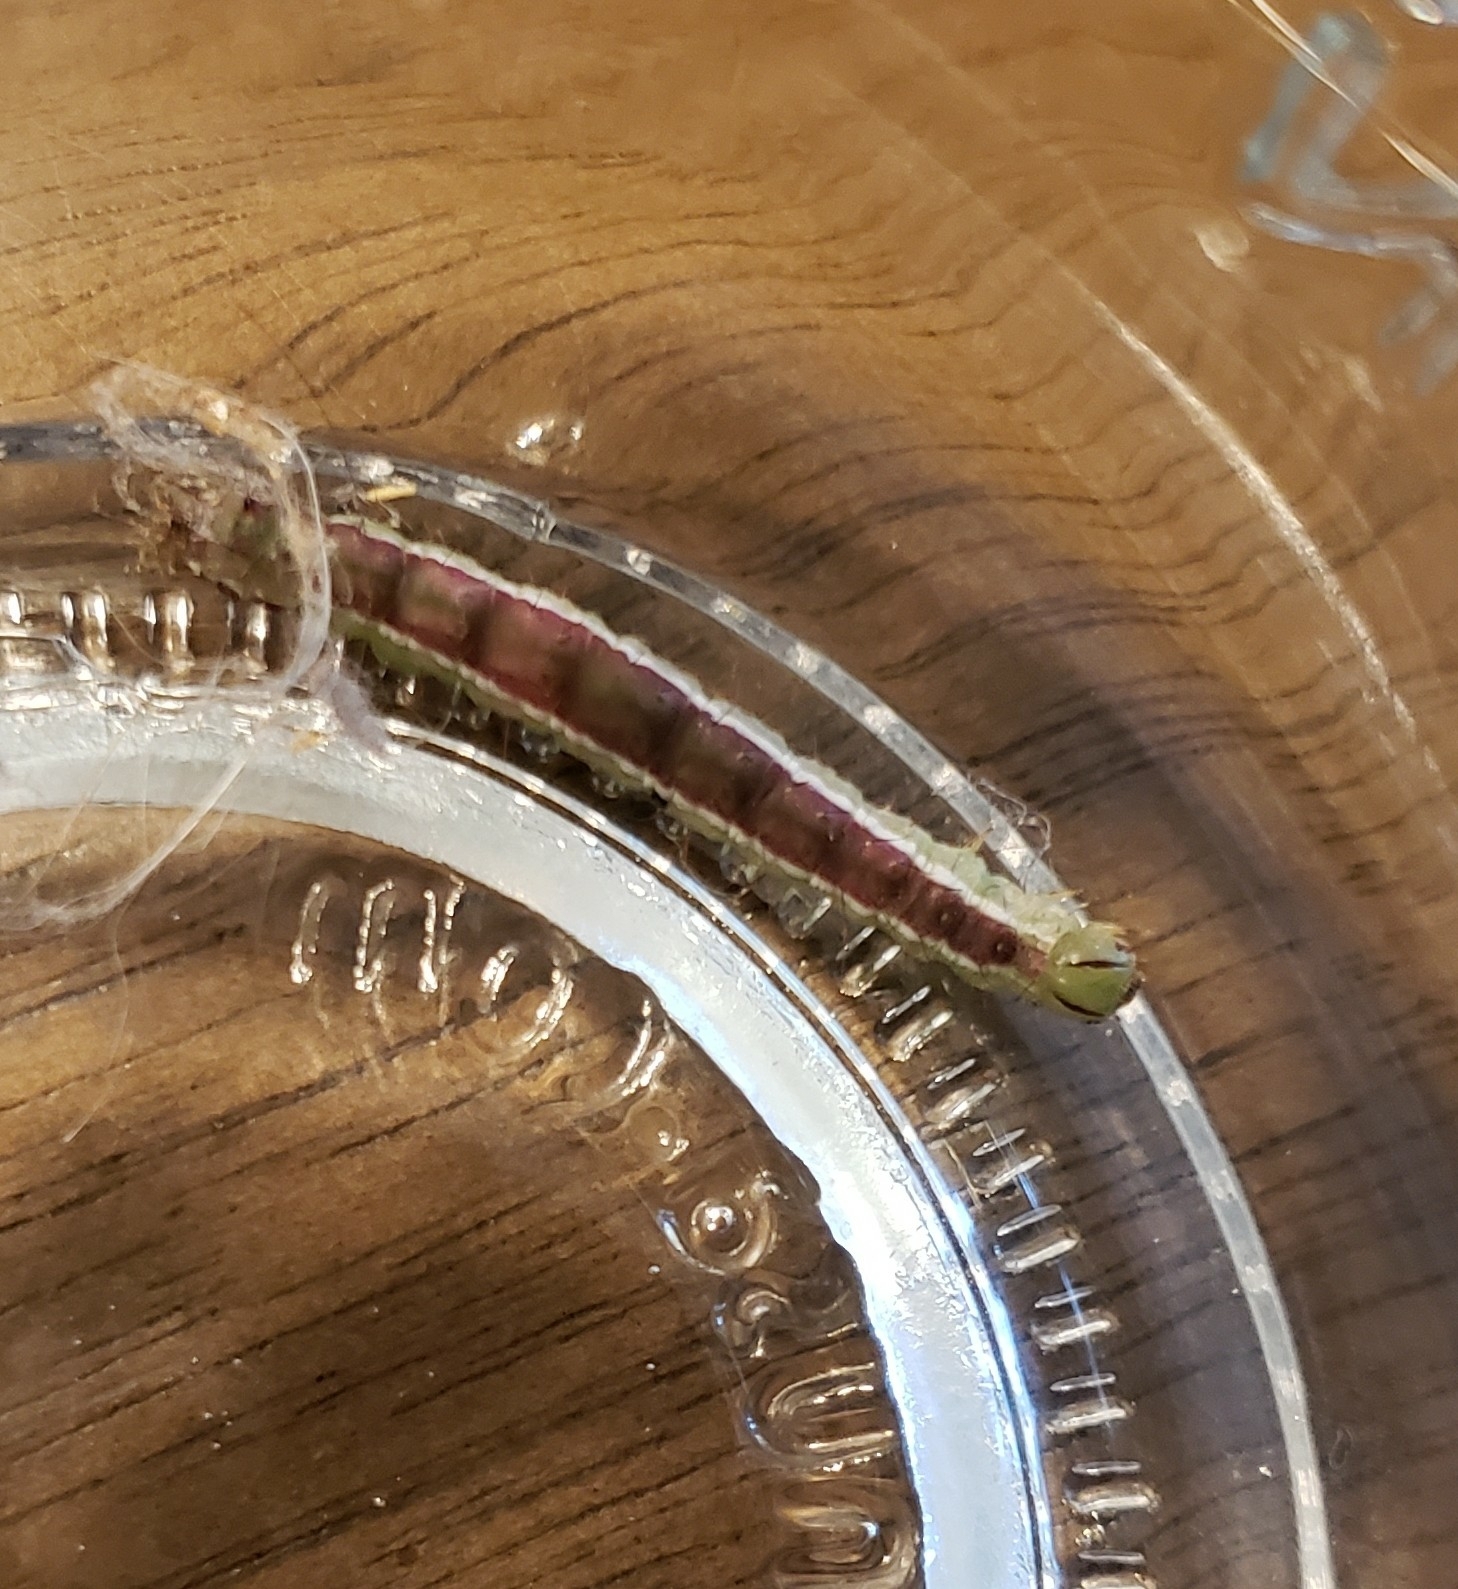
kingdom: Animalia
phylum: Arthropoda
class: Insecta
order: Lepidoptera
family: Noctuidae
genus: Cerma
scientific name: Cerma cerintha
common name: Tufted bird-dropping moth
